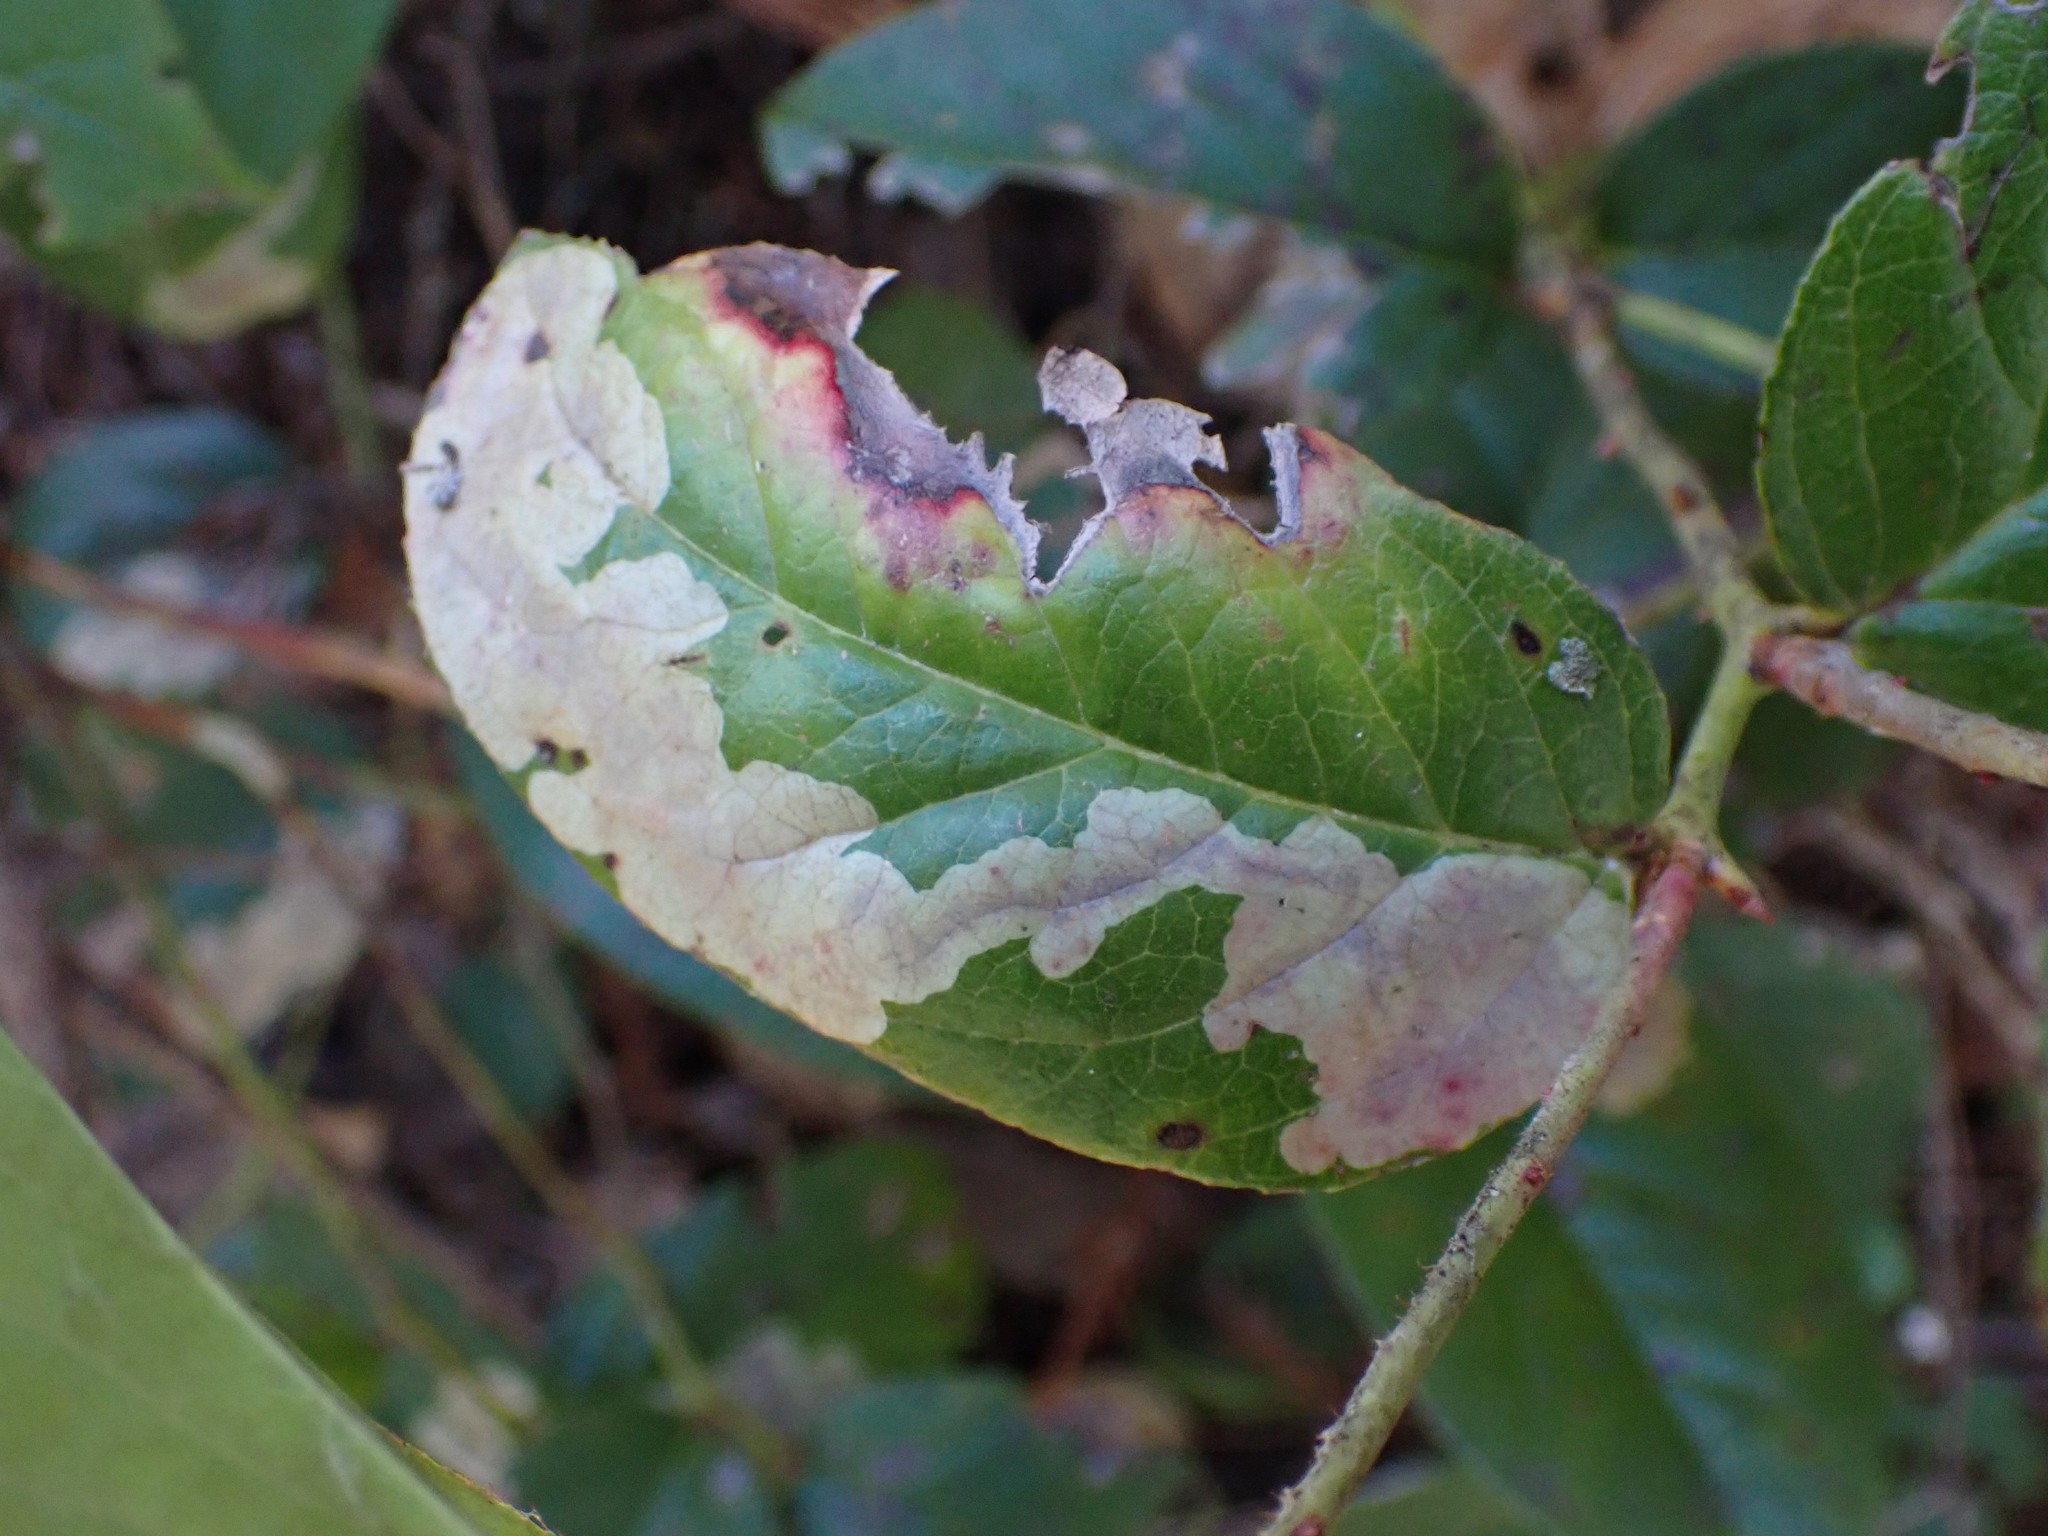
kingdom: Animalia
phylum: Arthropoda
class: Insecta
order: Lepidoptera
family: Gracillariidae
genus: Cameraria
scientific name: Cameraria gaultheriella
